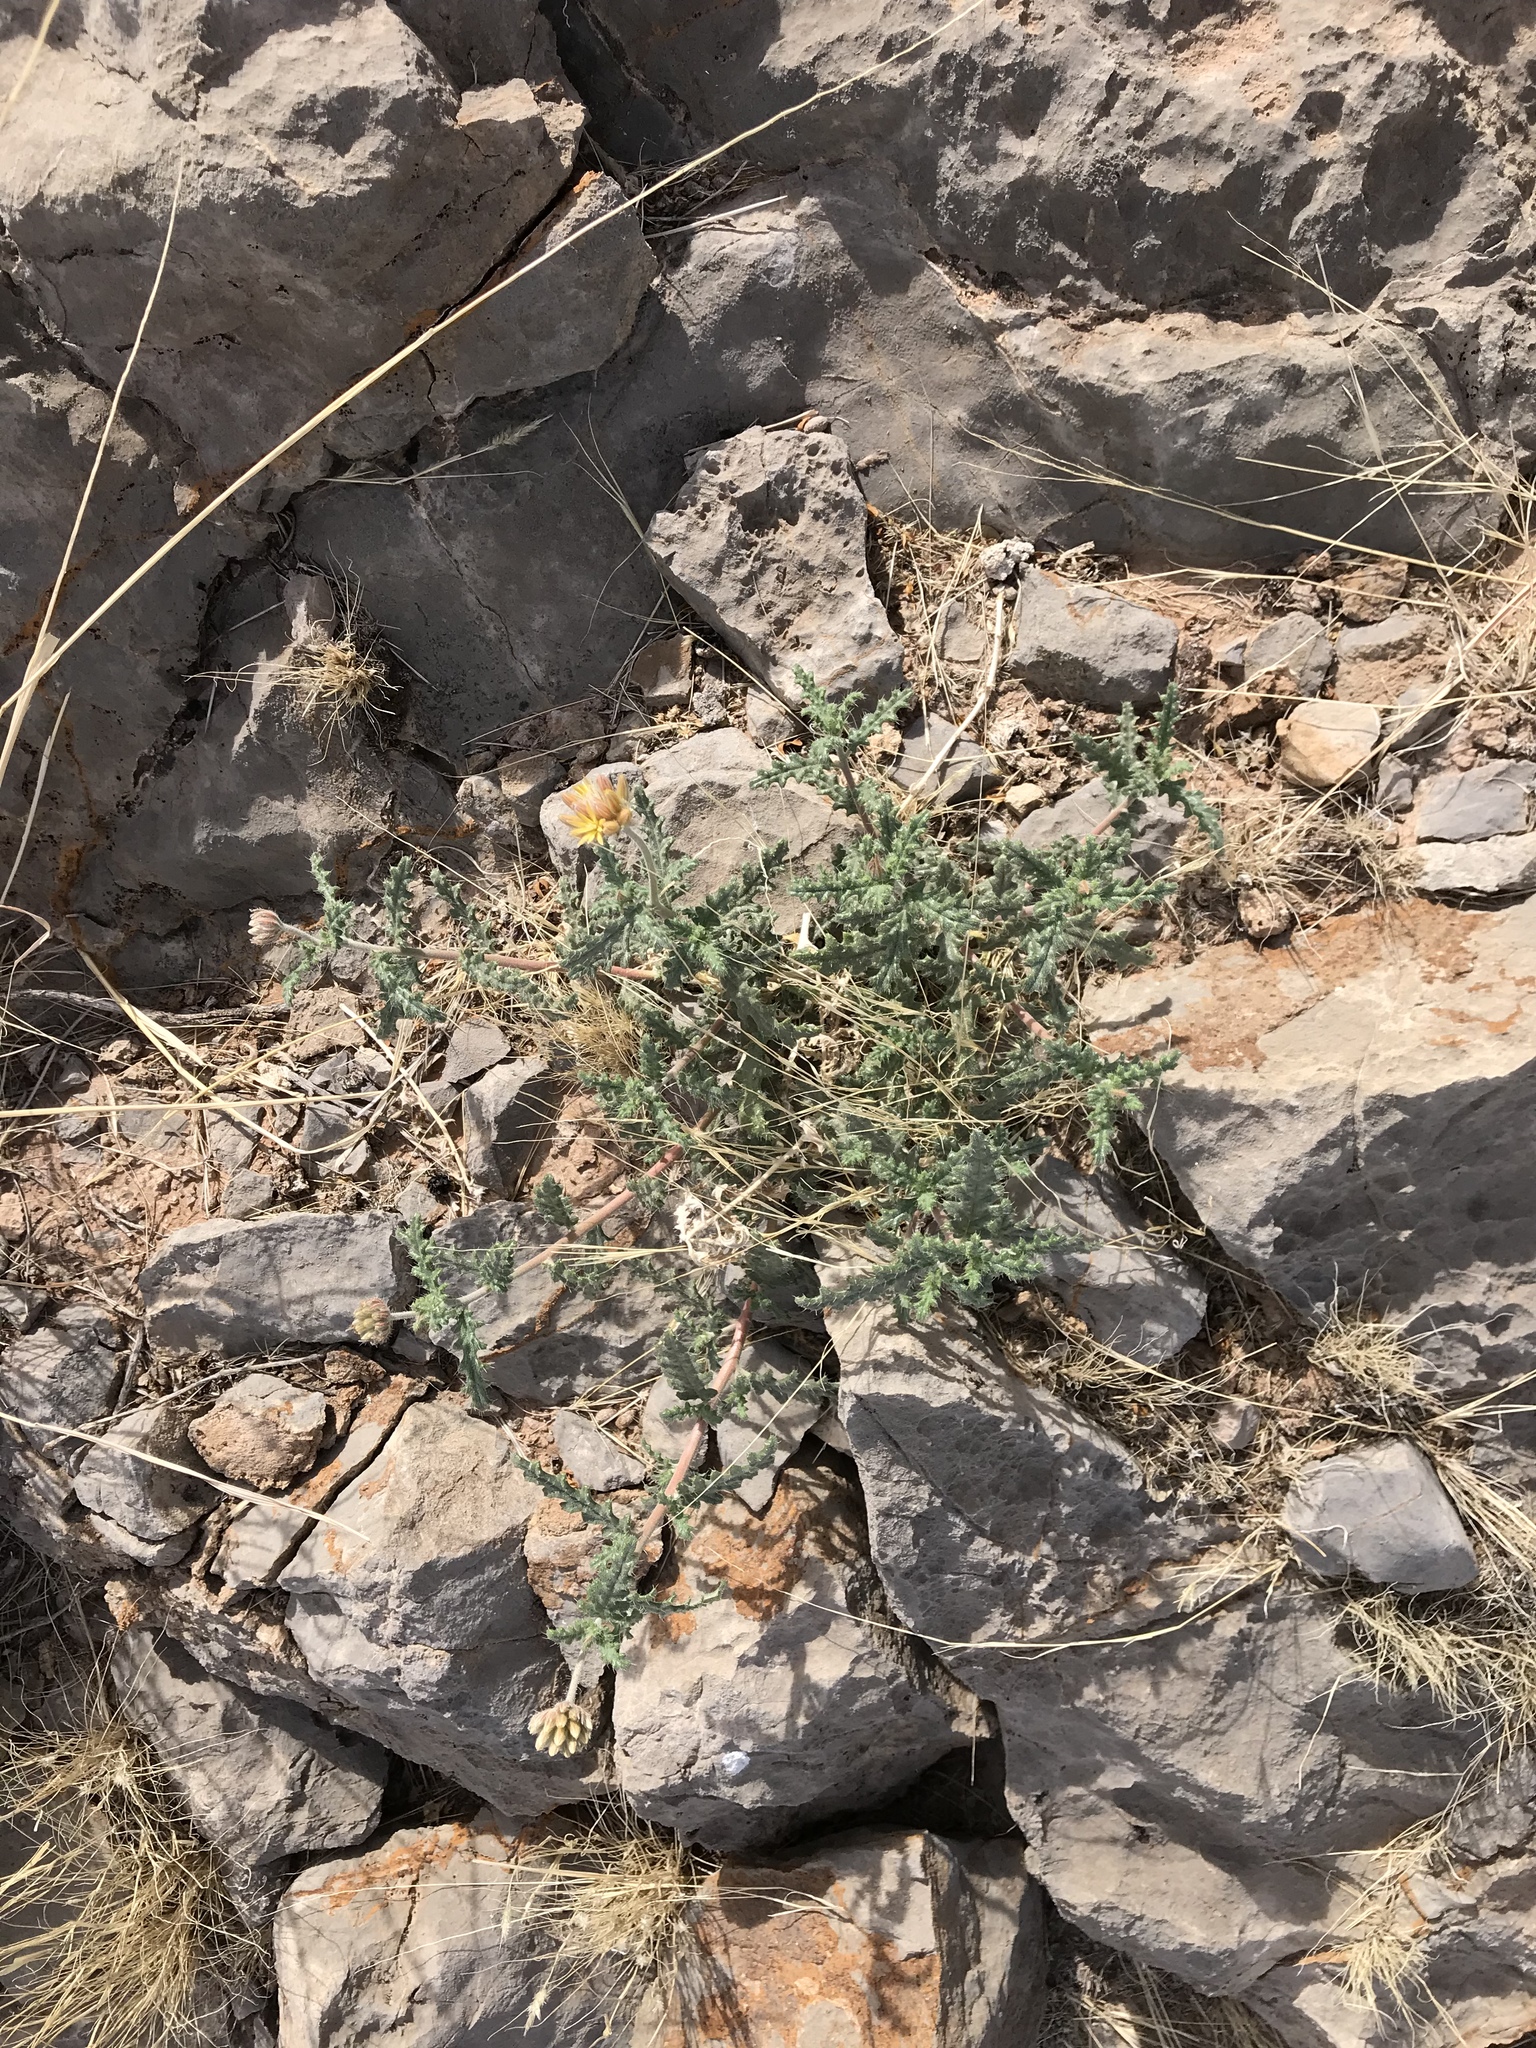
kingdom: Plantae
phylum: Tracheophyta
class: Magnoliopsida
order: Cornales
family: Loasaceae
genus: Cevallia
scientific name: Cevallia sinuata
